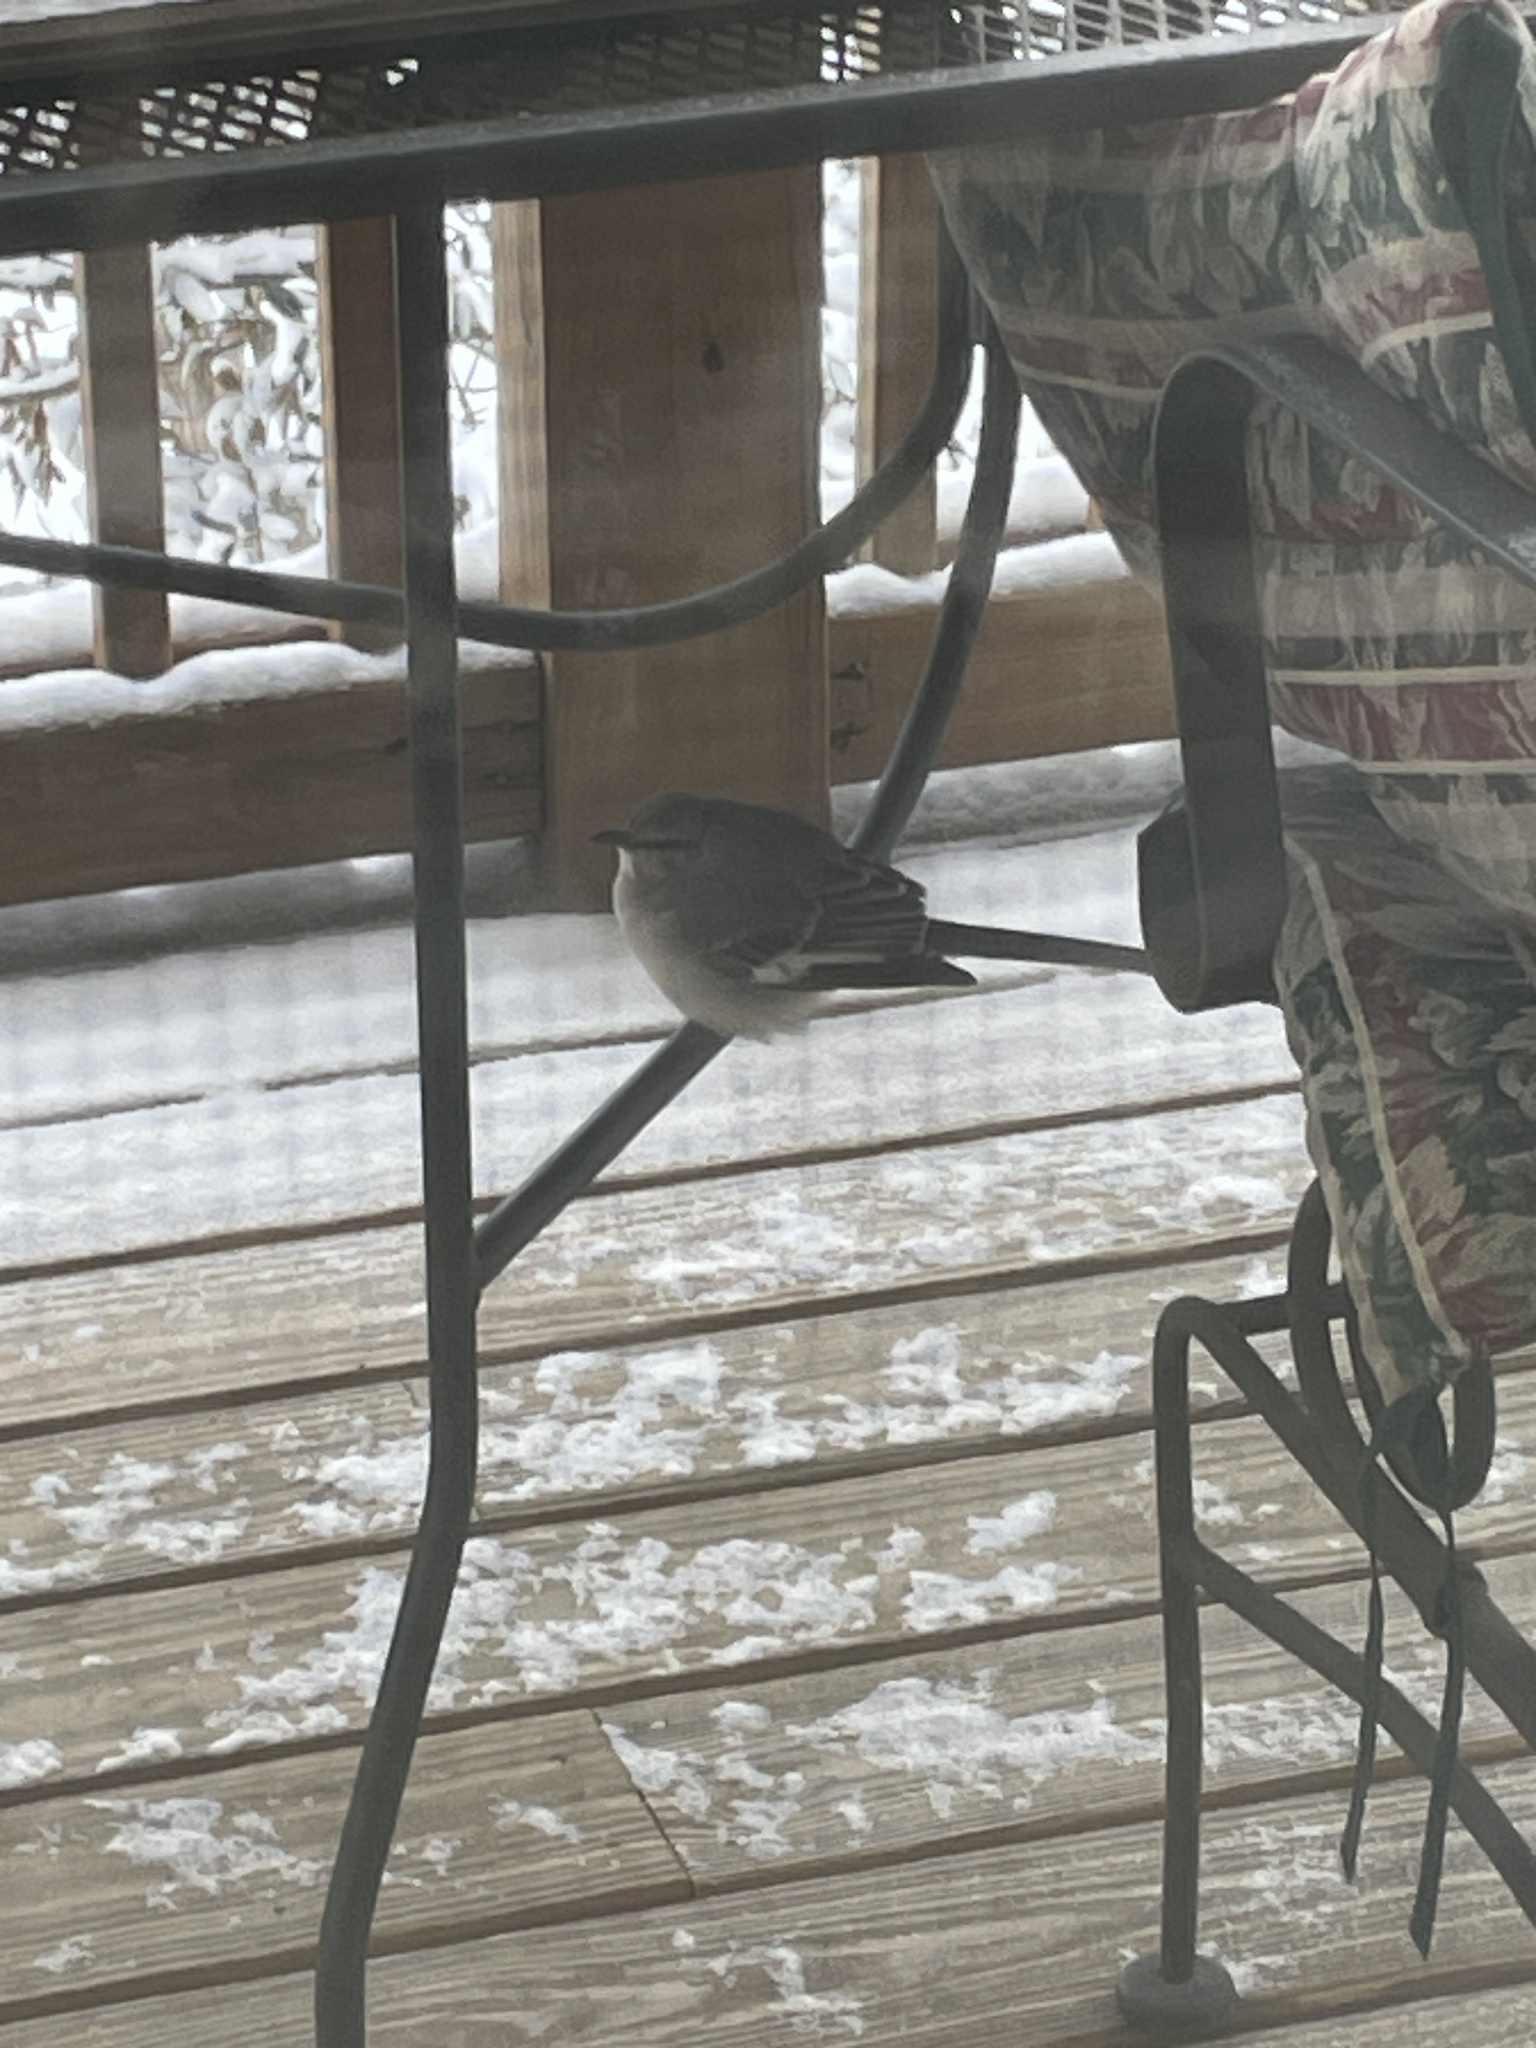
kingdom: Animalia
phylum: Chordata
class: Aves
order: Passeriformes
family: Mimidae
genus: Mimus
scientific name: Mimus polyglottos
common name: Northern mockingbird
